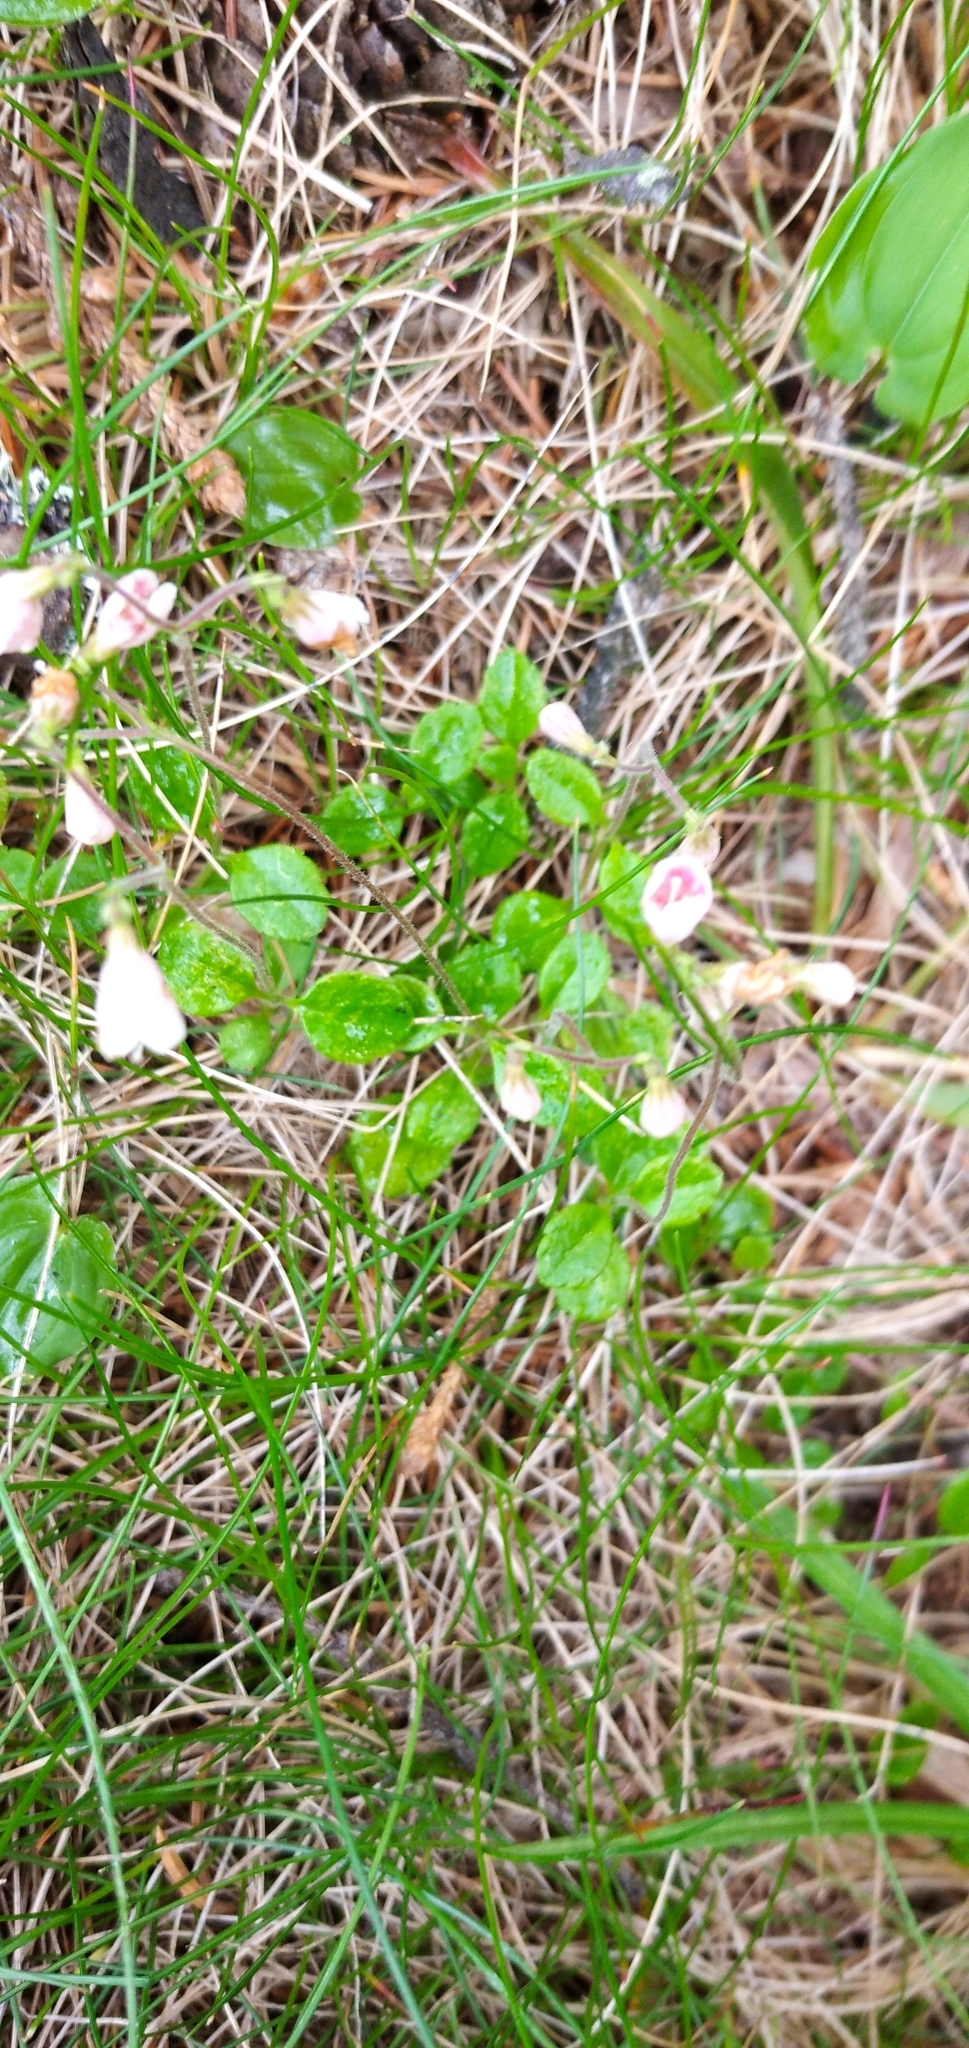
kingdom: Plantae
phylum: Tracheophyta
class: Magnoliopsida
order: Dipsacales
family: Caprifoliaceae
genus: Linnaea
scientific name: Linnaea borealis
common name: Twinflower
